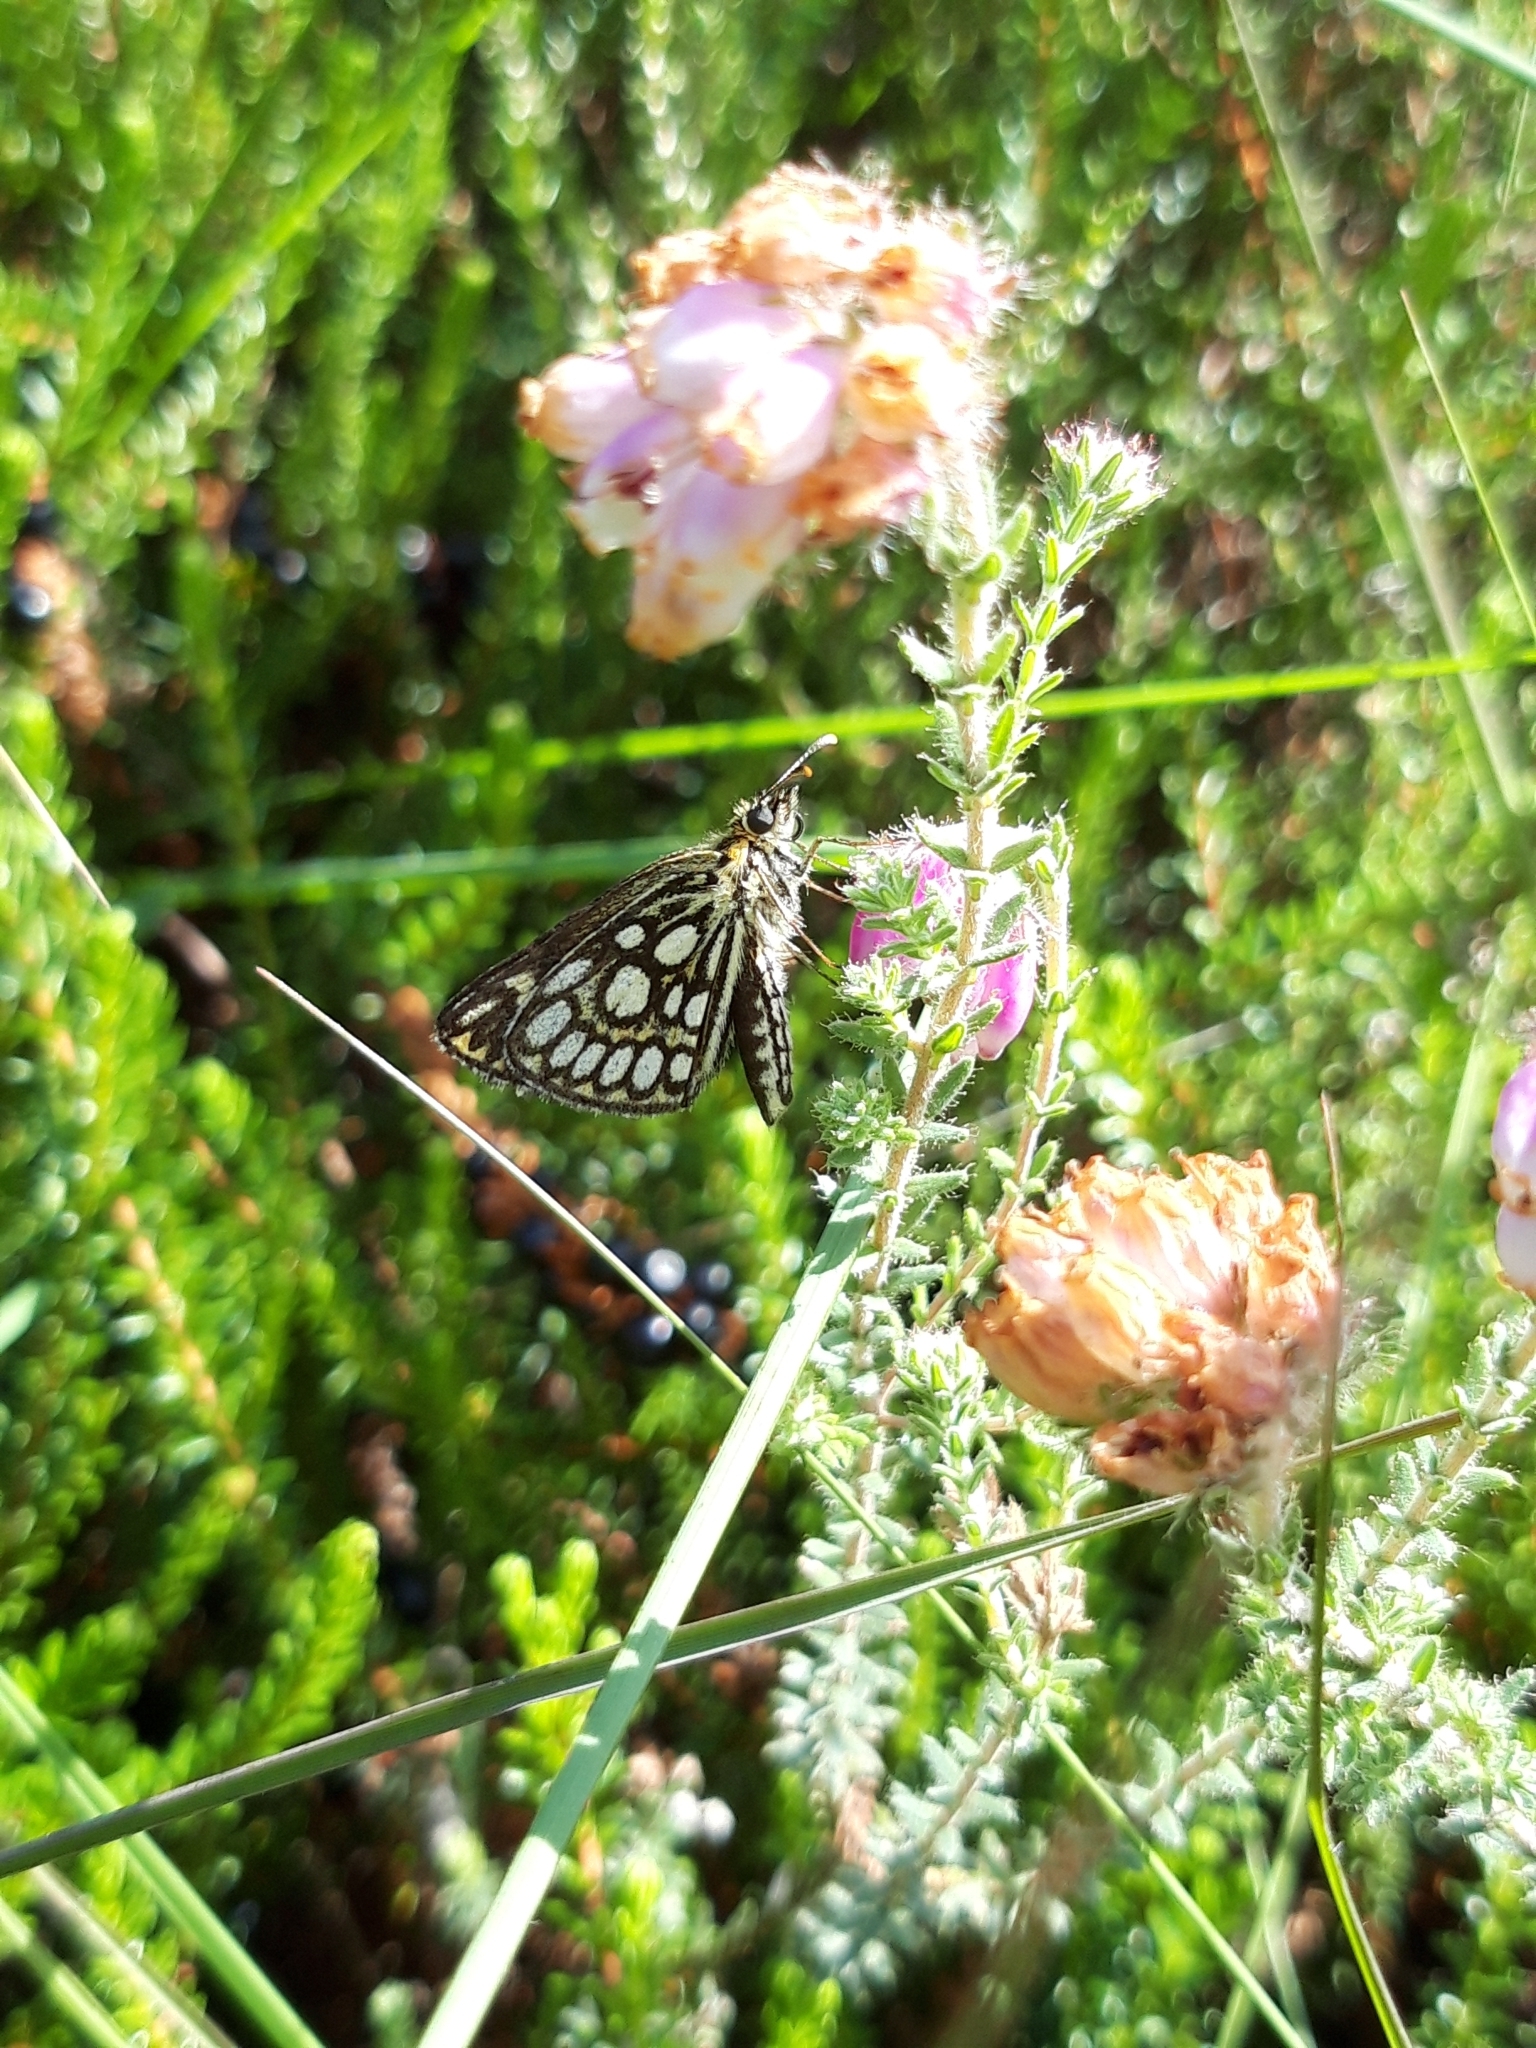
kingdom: Animalia
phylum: Arthropoda
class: Insecta
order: Lepidoptera
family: Hesperiidae
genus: Heteropterus
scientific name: Heteropterus morpheus
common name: Large chequered skipper
